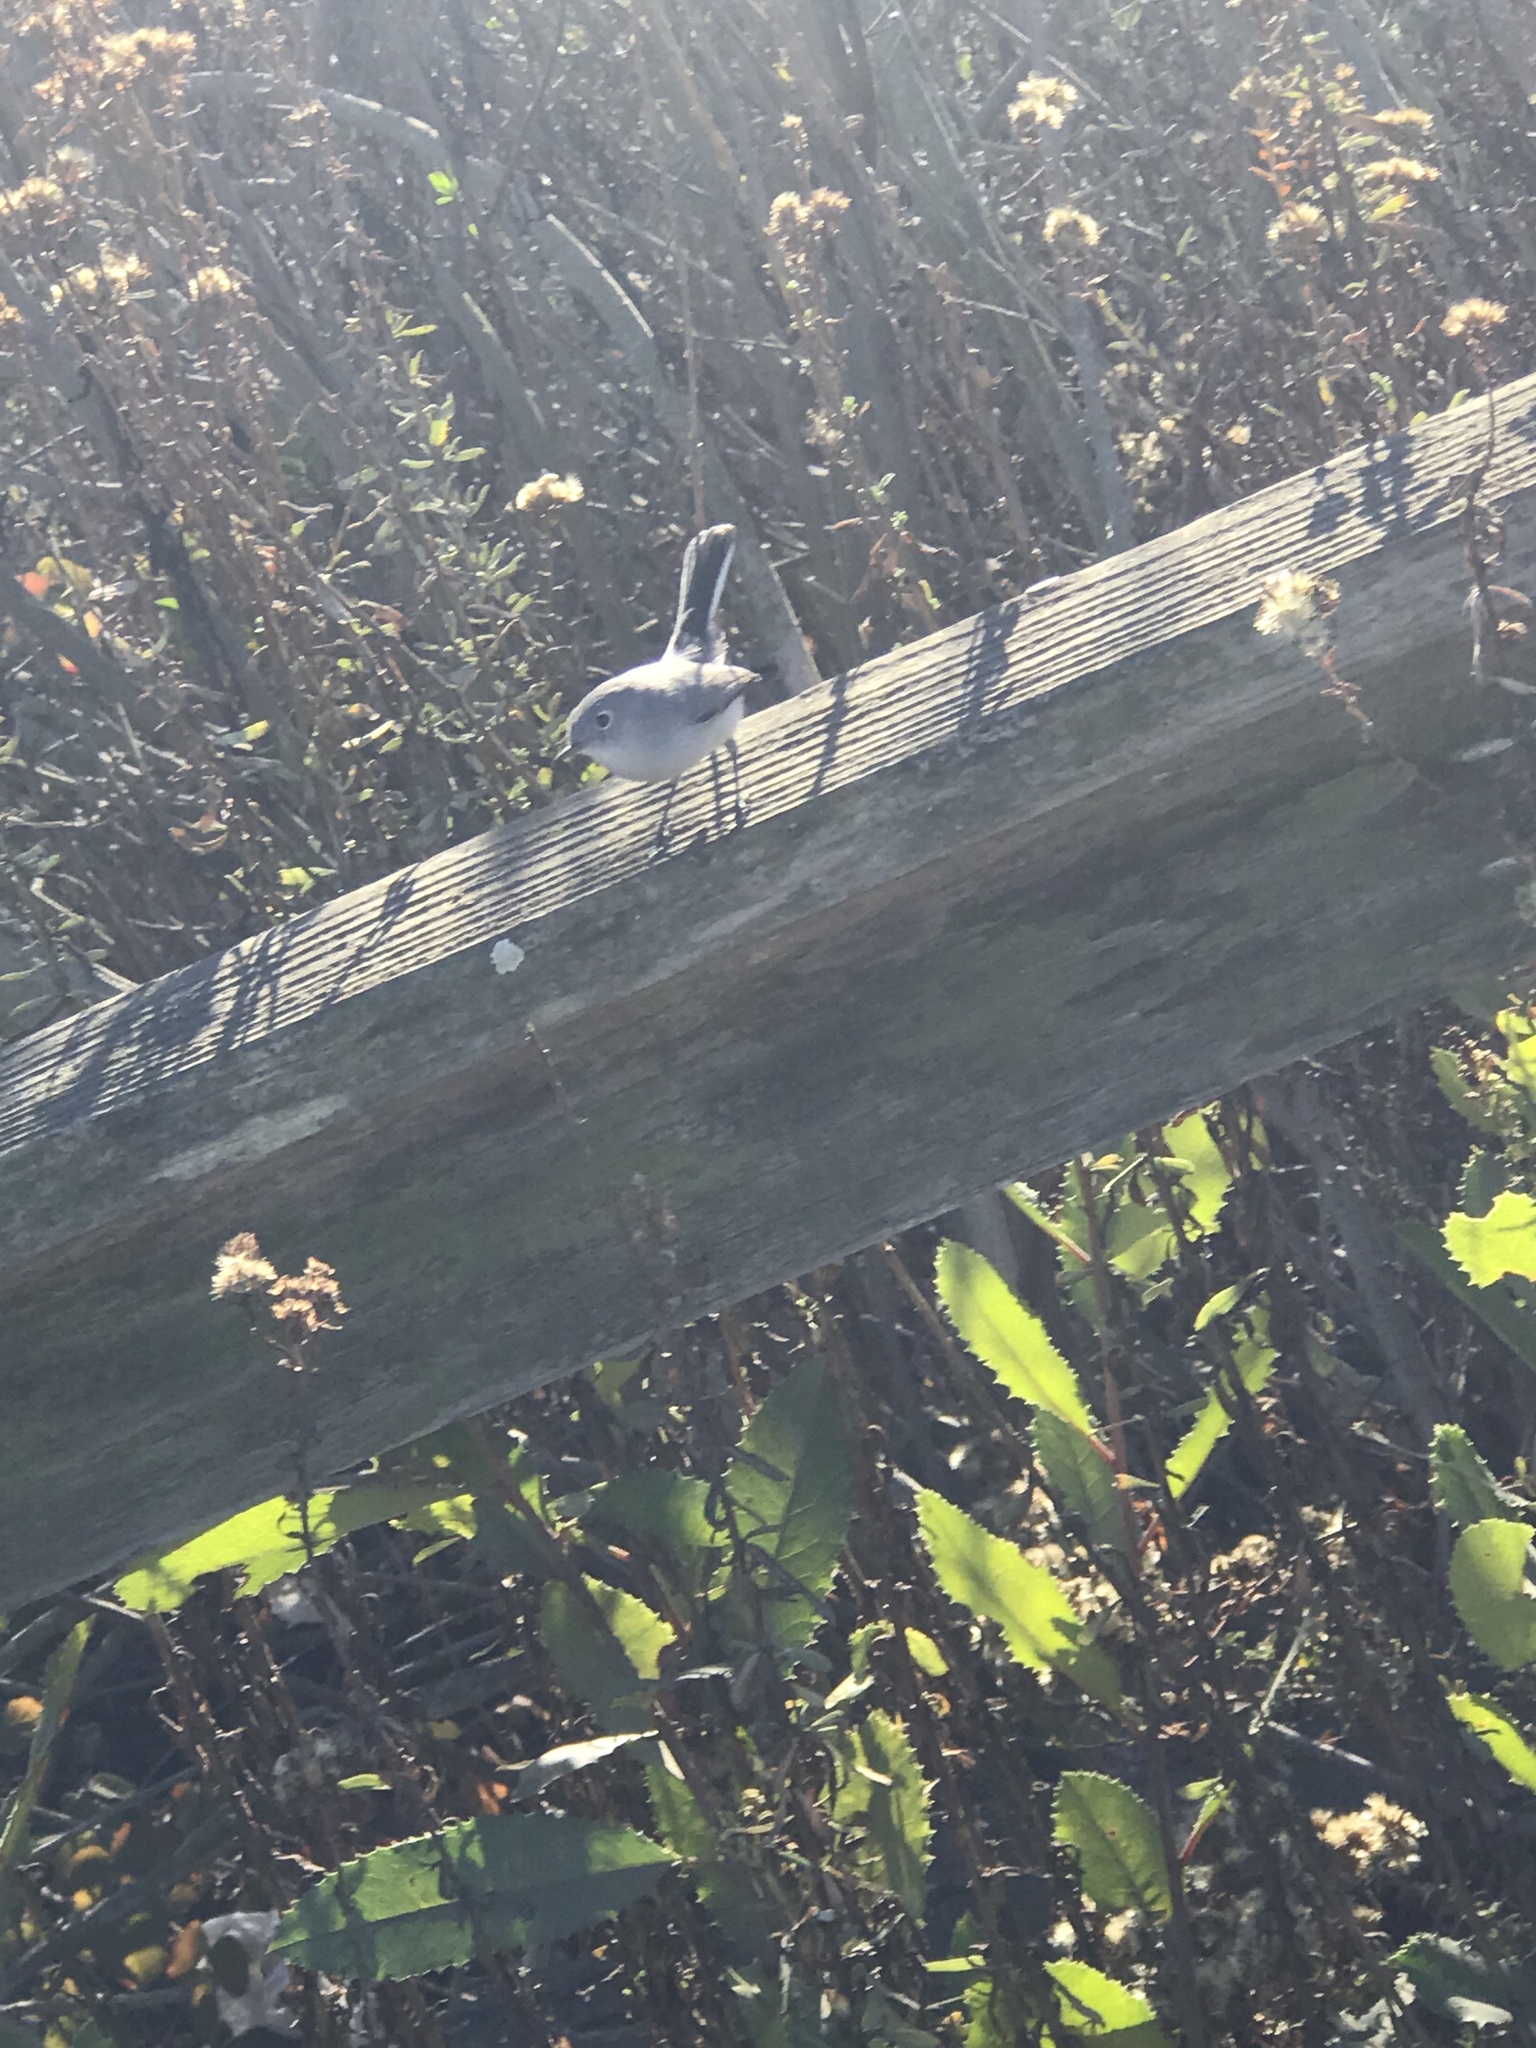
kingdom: Animalia
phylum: Chordata
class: Aves
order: Passeriformes
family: Polioptilidae
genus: Polioptila
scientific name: Polioptila caerulea
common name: Blue-gray gnatcatcher
